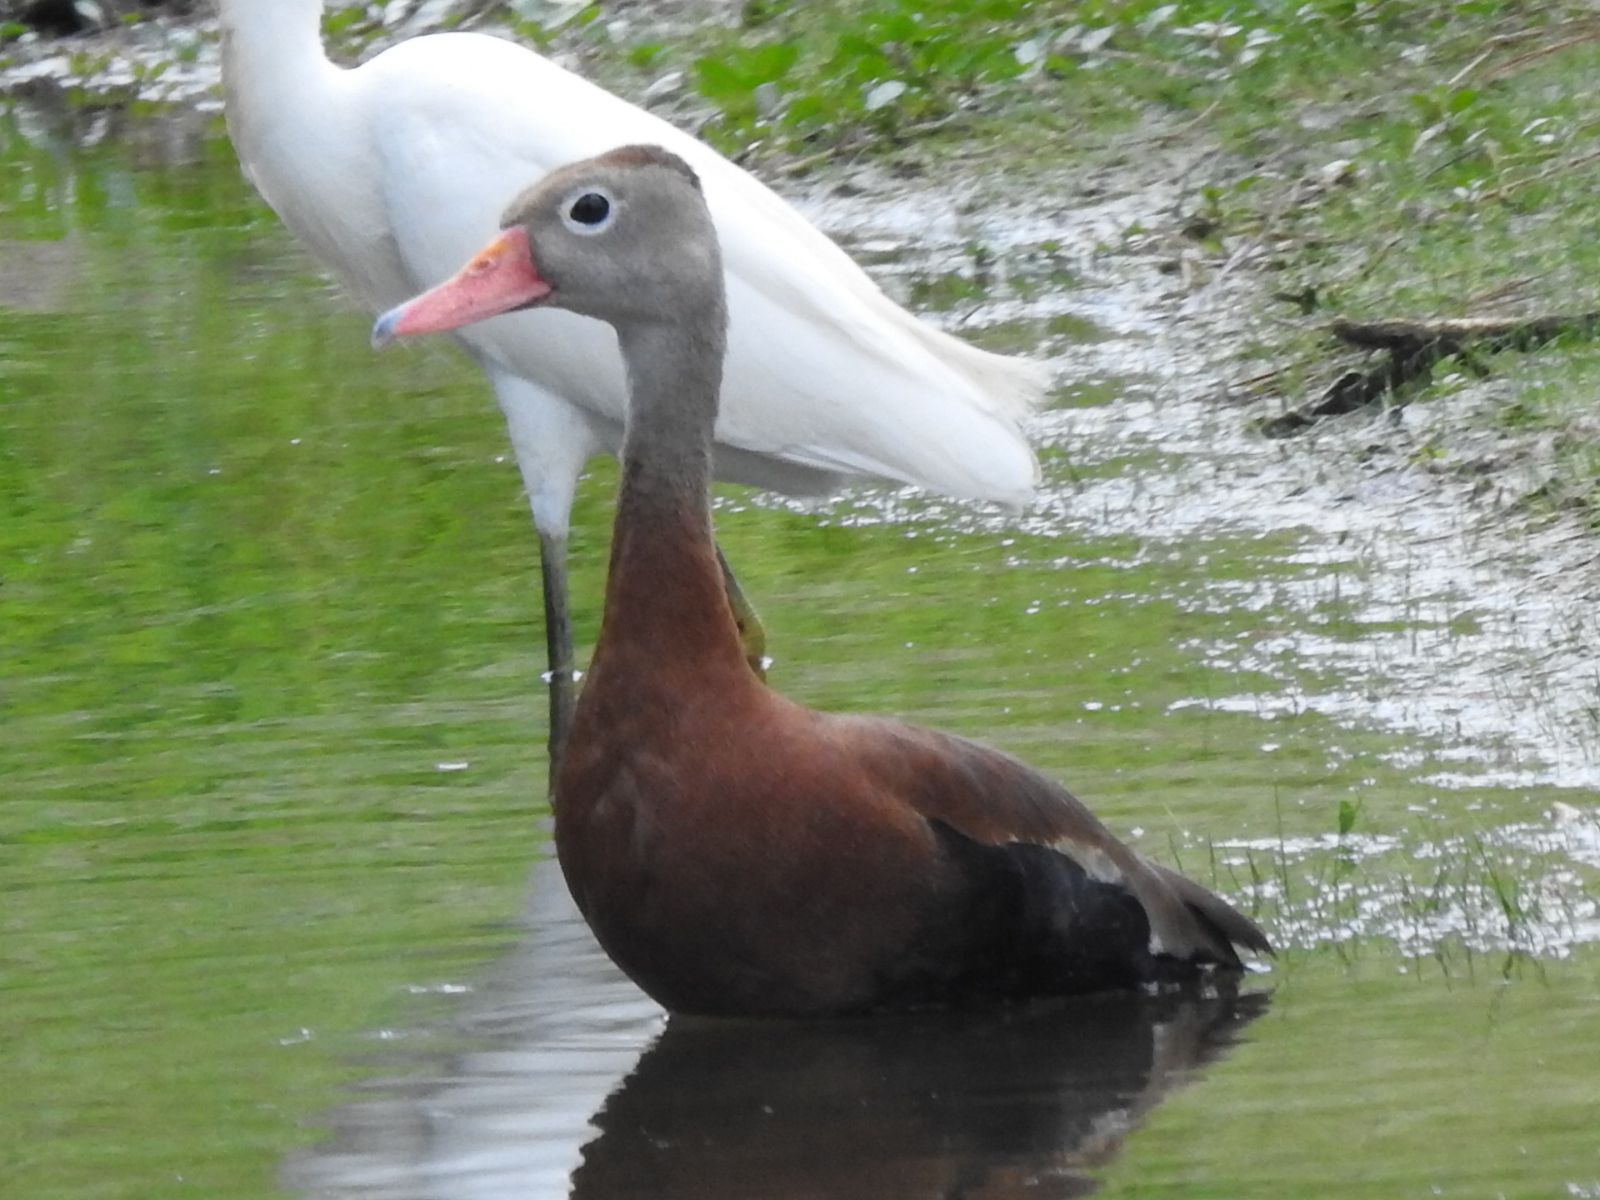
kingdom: Animalia
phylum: Chordata
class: Aves
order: Anseriformes
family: Anatidae
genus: Dendrocygna
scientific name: Dendrocygna autumnalis
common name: Black-bellied whistling duck
